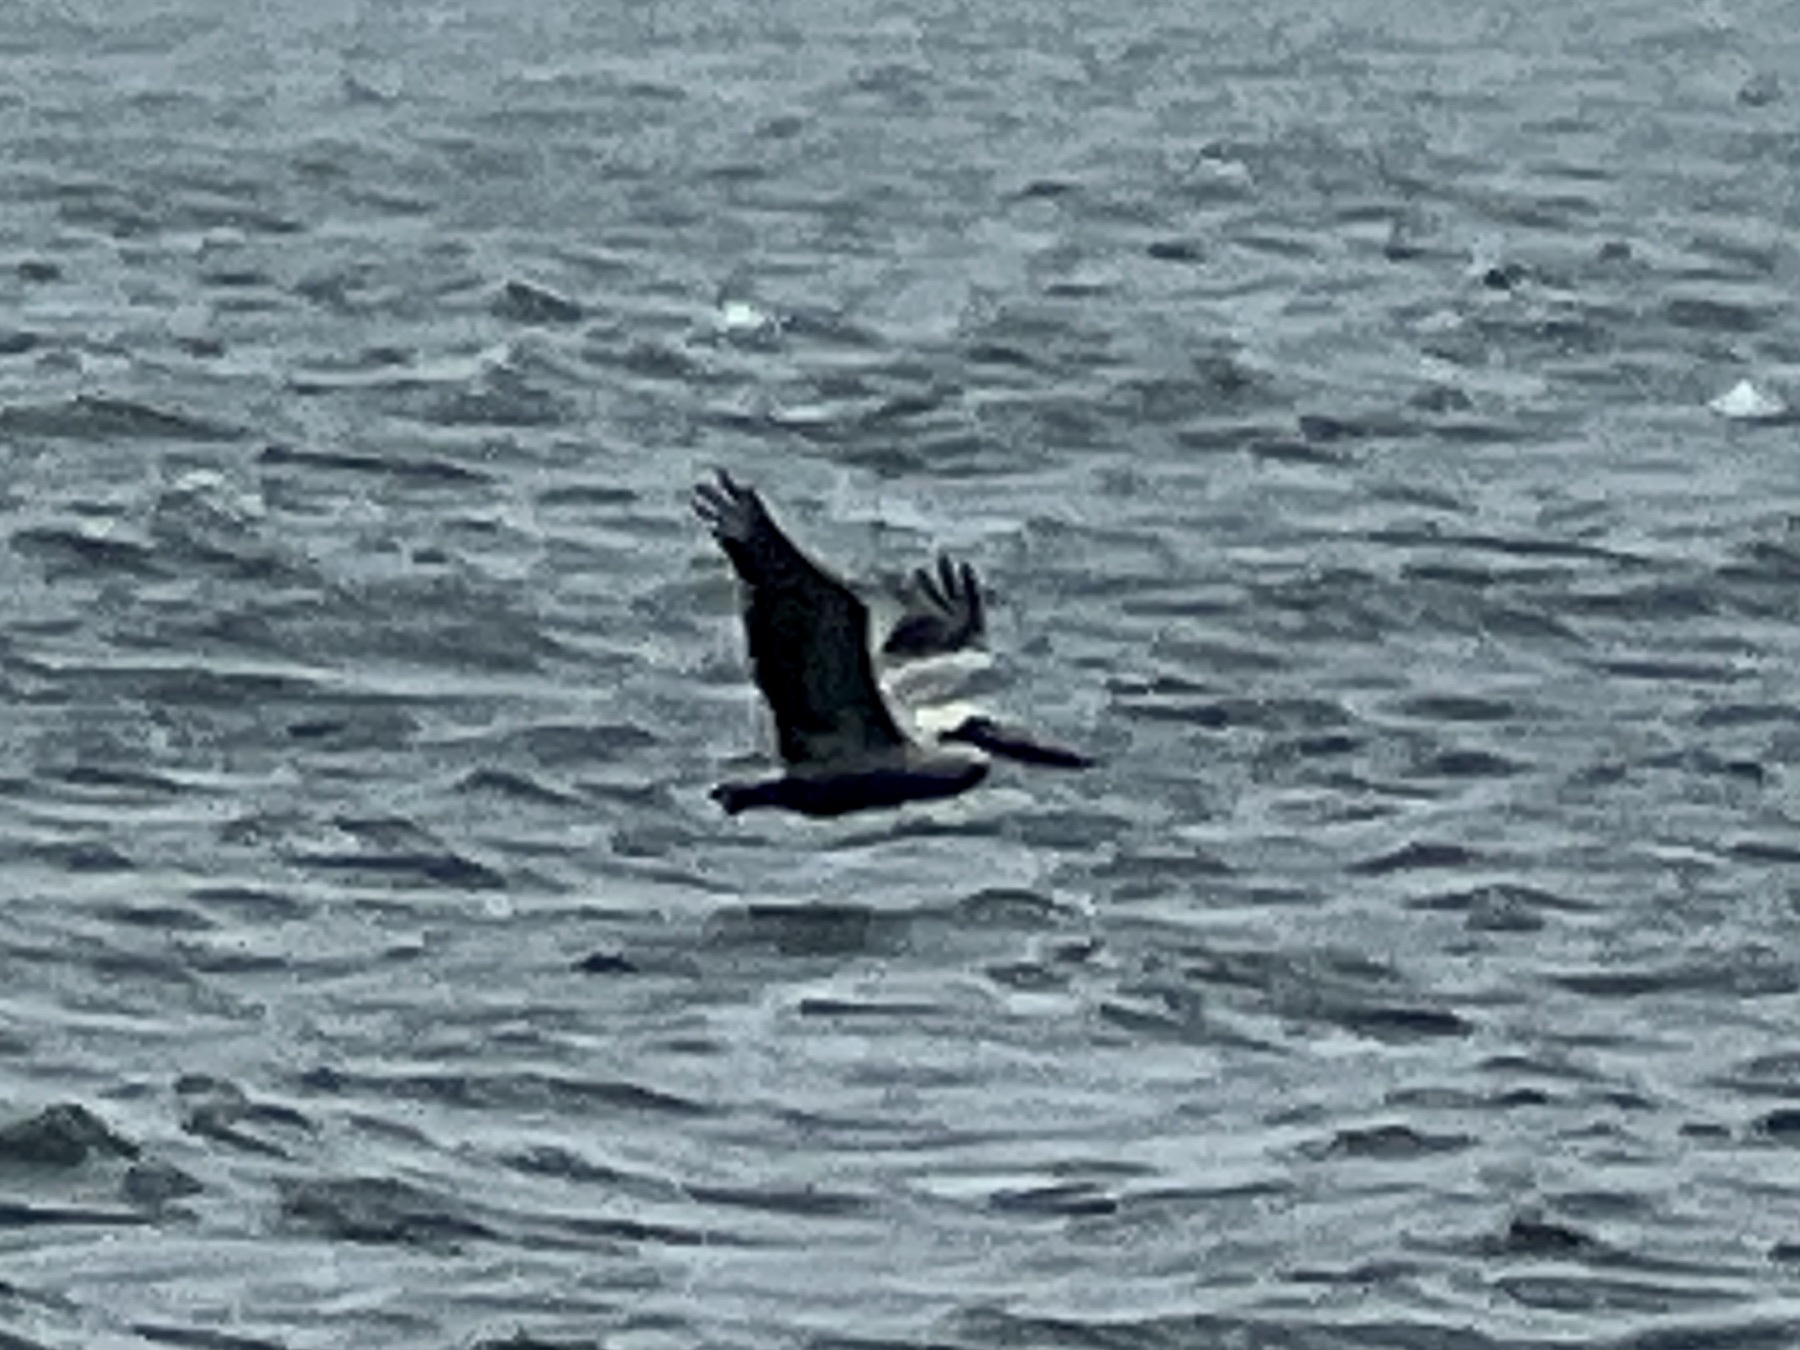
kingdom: Animalia
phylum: Chordata
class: Aves
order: Pelecaniformes
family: Pelecanidae
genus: Pelecanus
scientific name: Pelecanus occidentalis
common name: Brown pelican
